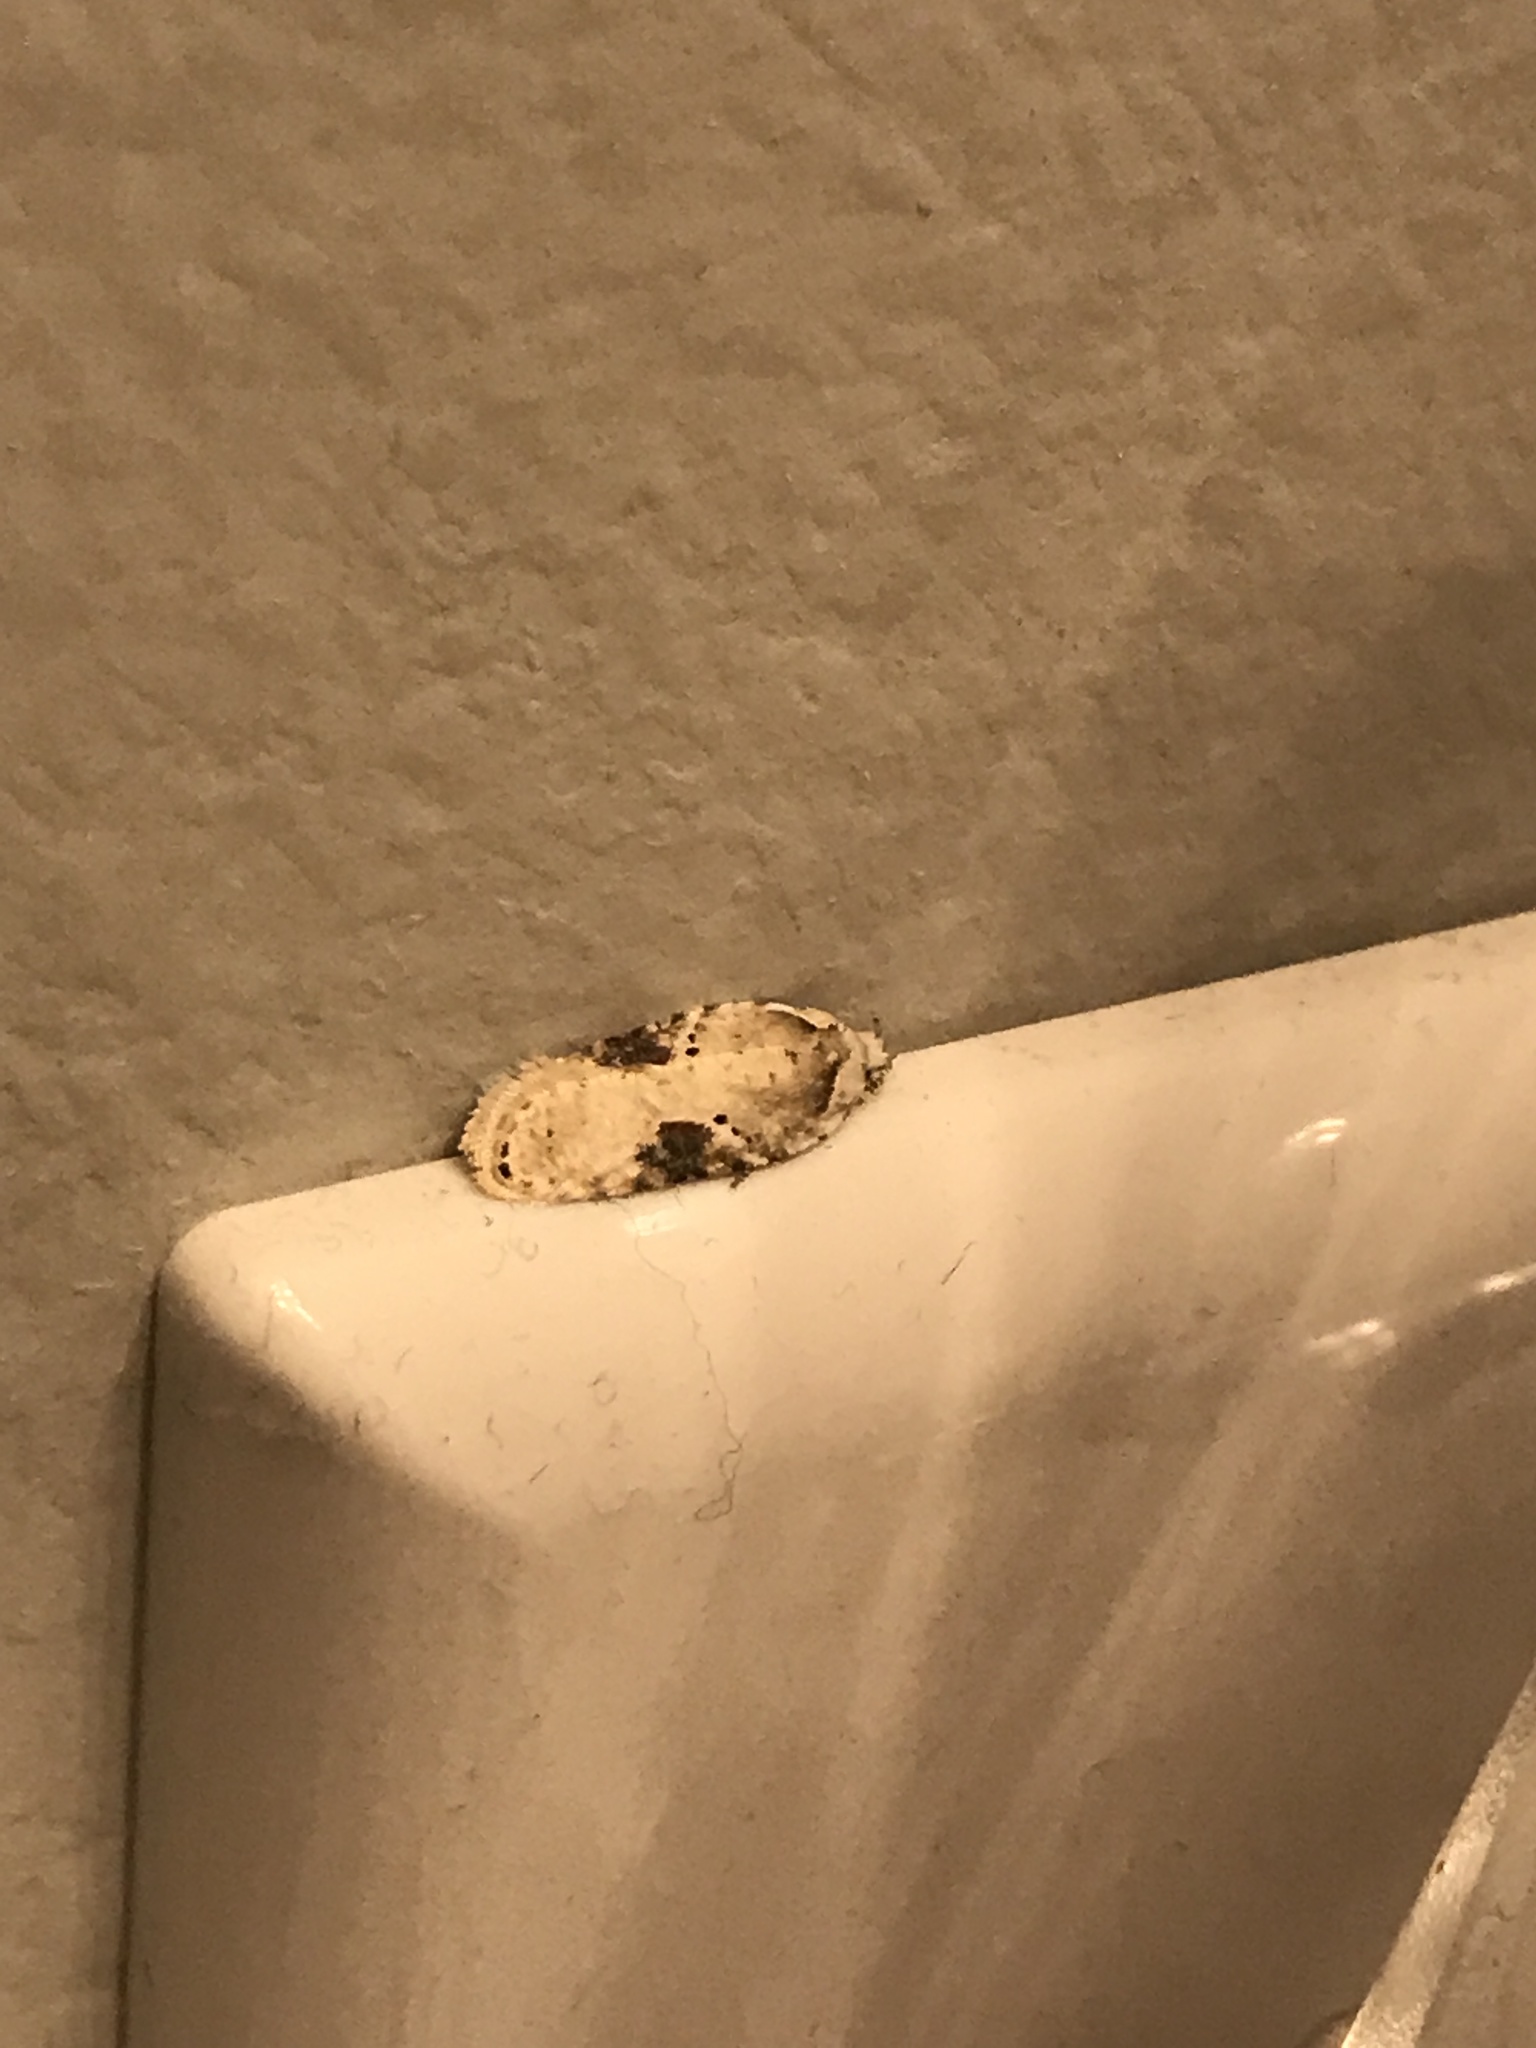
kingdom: Animalia
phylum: Arthropoda
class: Insecta
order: Lepidoptera
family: Depressariidae
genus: Agonopterix
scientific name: Agonopterix alstroemeriana
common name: Moth
